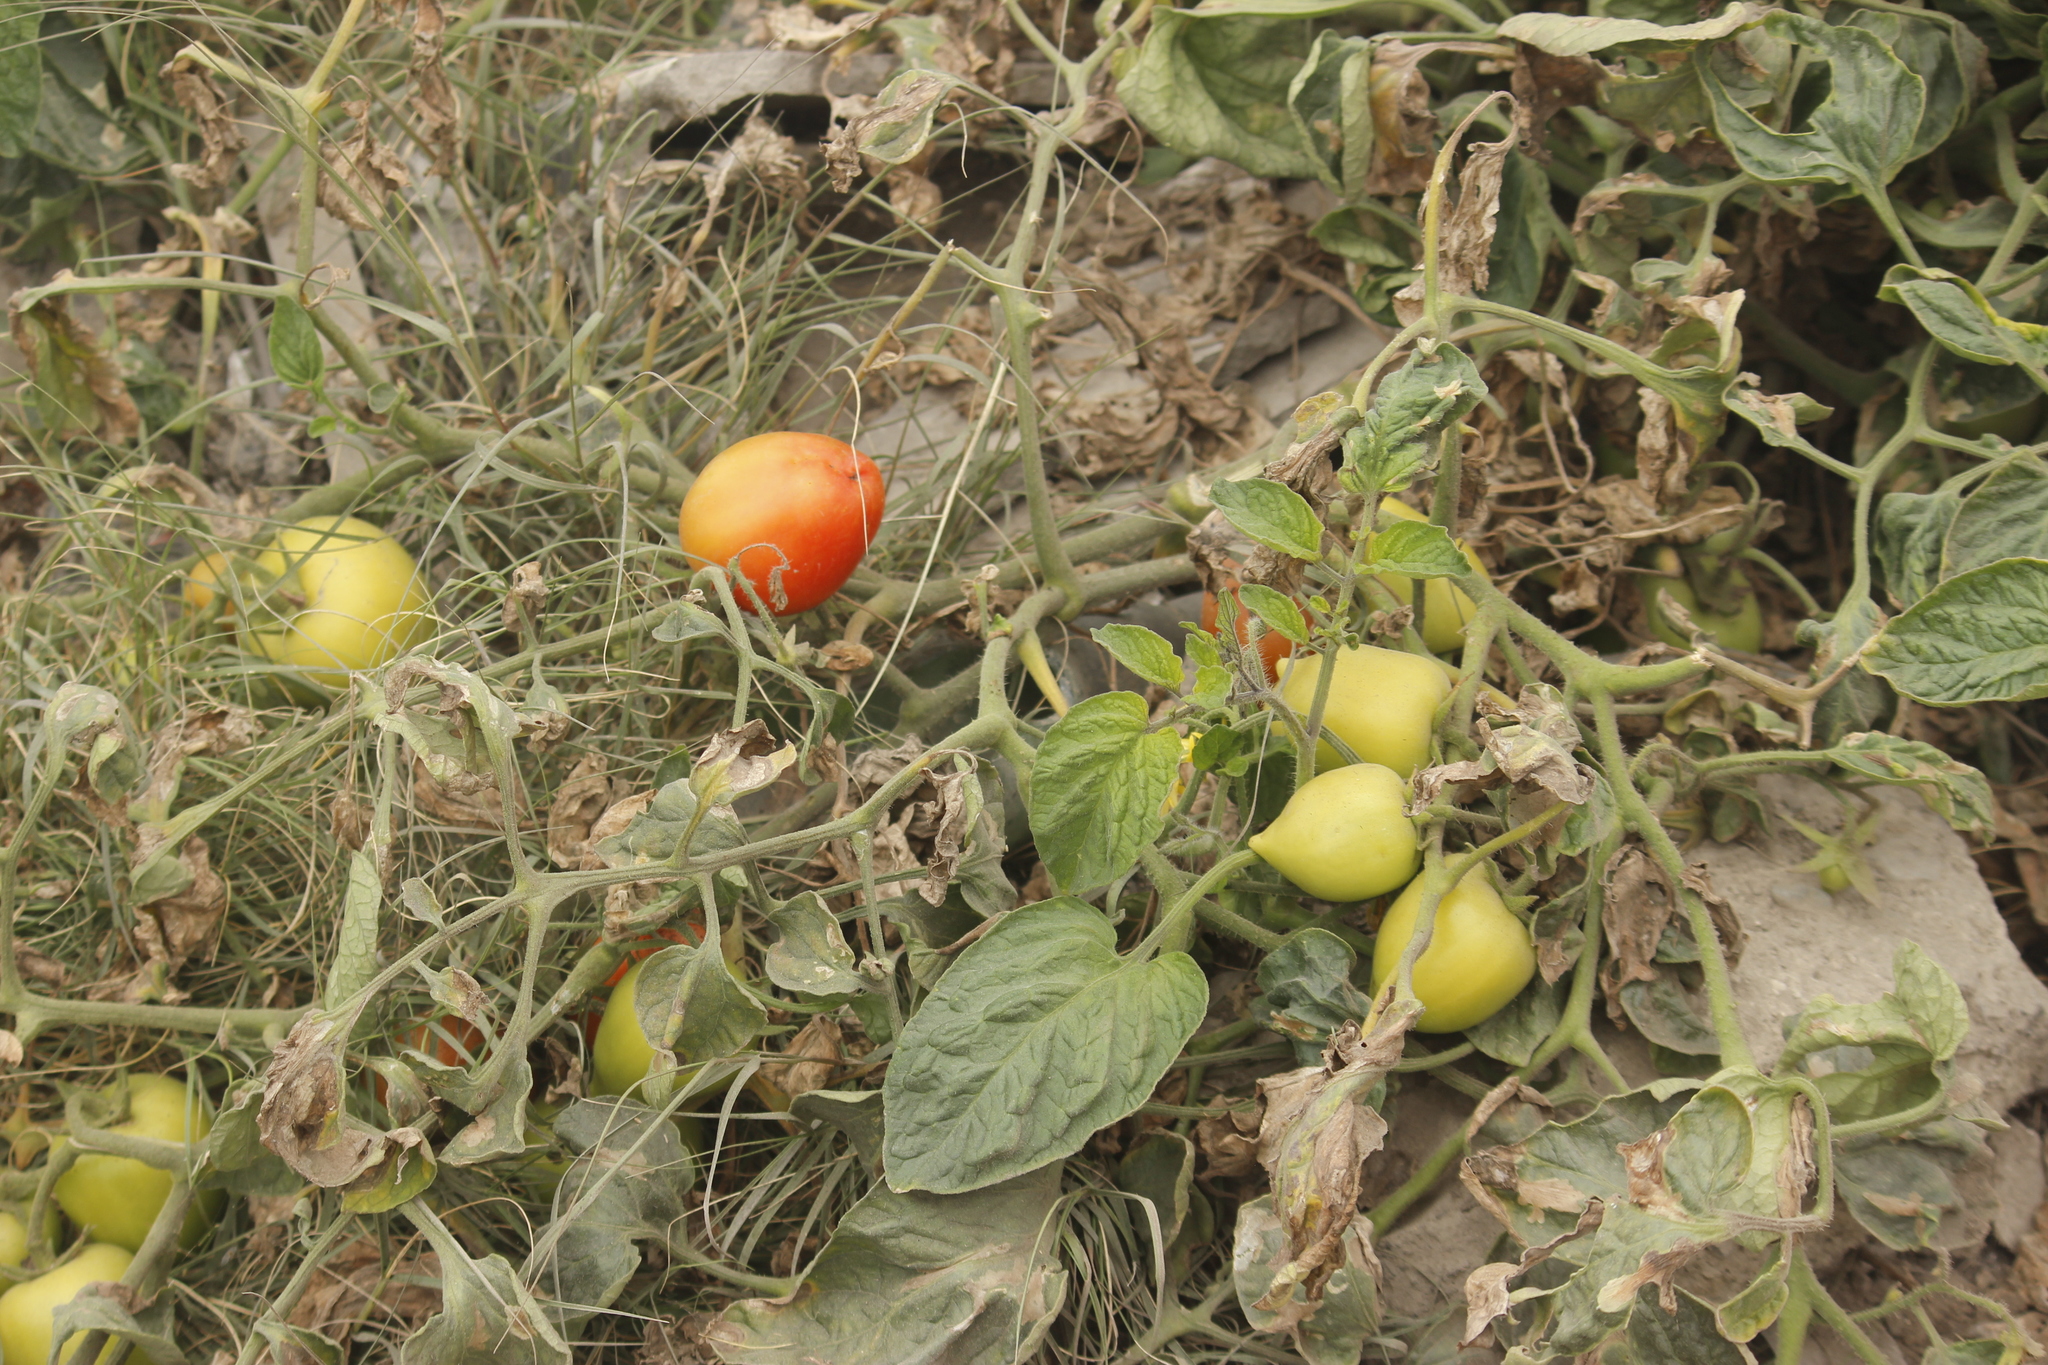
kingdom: Plantae
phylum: Tracheophyta
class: Magnoliopsida
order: Solanales
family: Solanaceae
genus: Solanum
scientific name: Solanum lycopersicum
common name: Garden tomato
